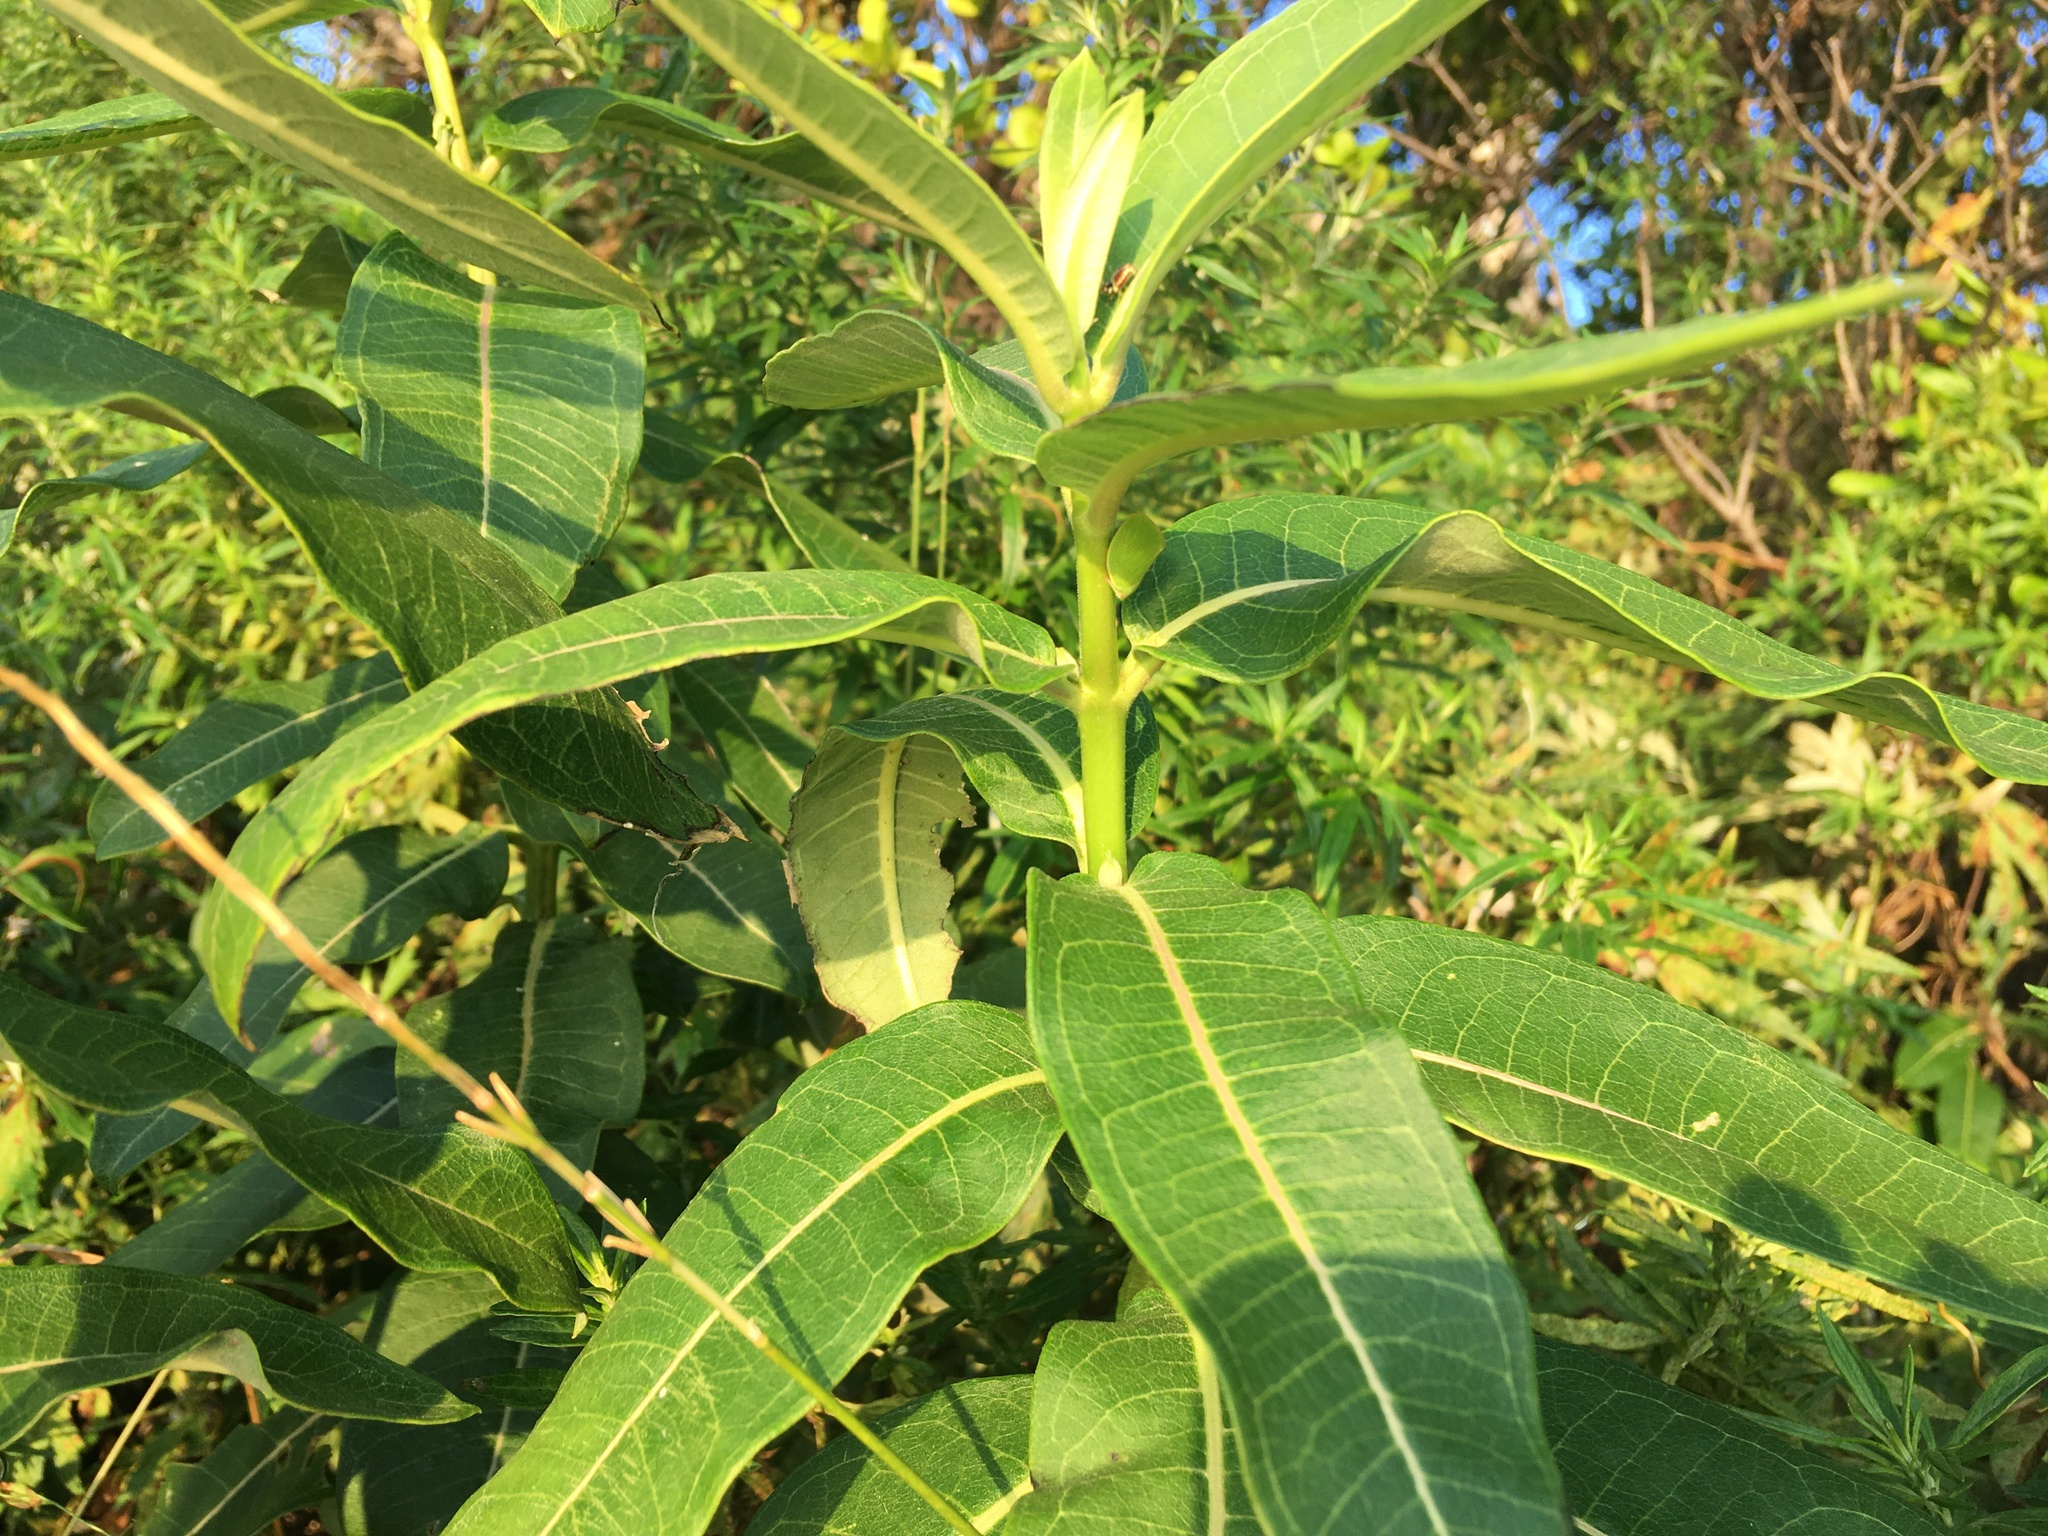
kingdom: Plantae
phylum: Tracheophyta
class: Magnoliopsida
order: Gentianales
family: Apocynaceae
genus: Asclepias
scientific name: Asclepias syriaca
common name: Common milkweed
